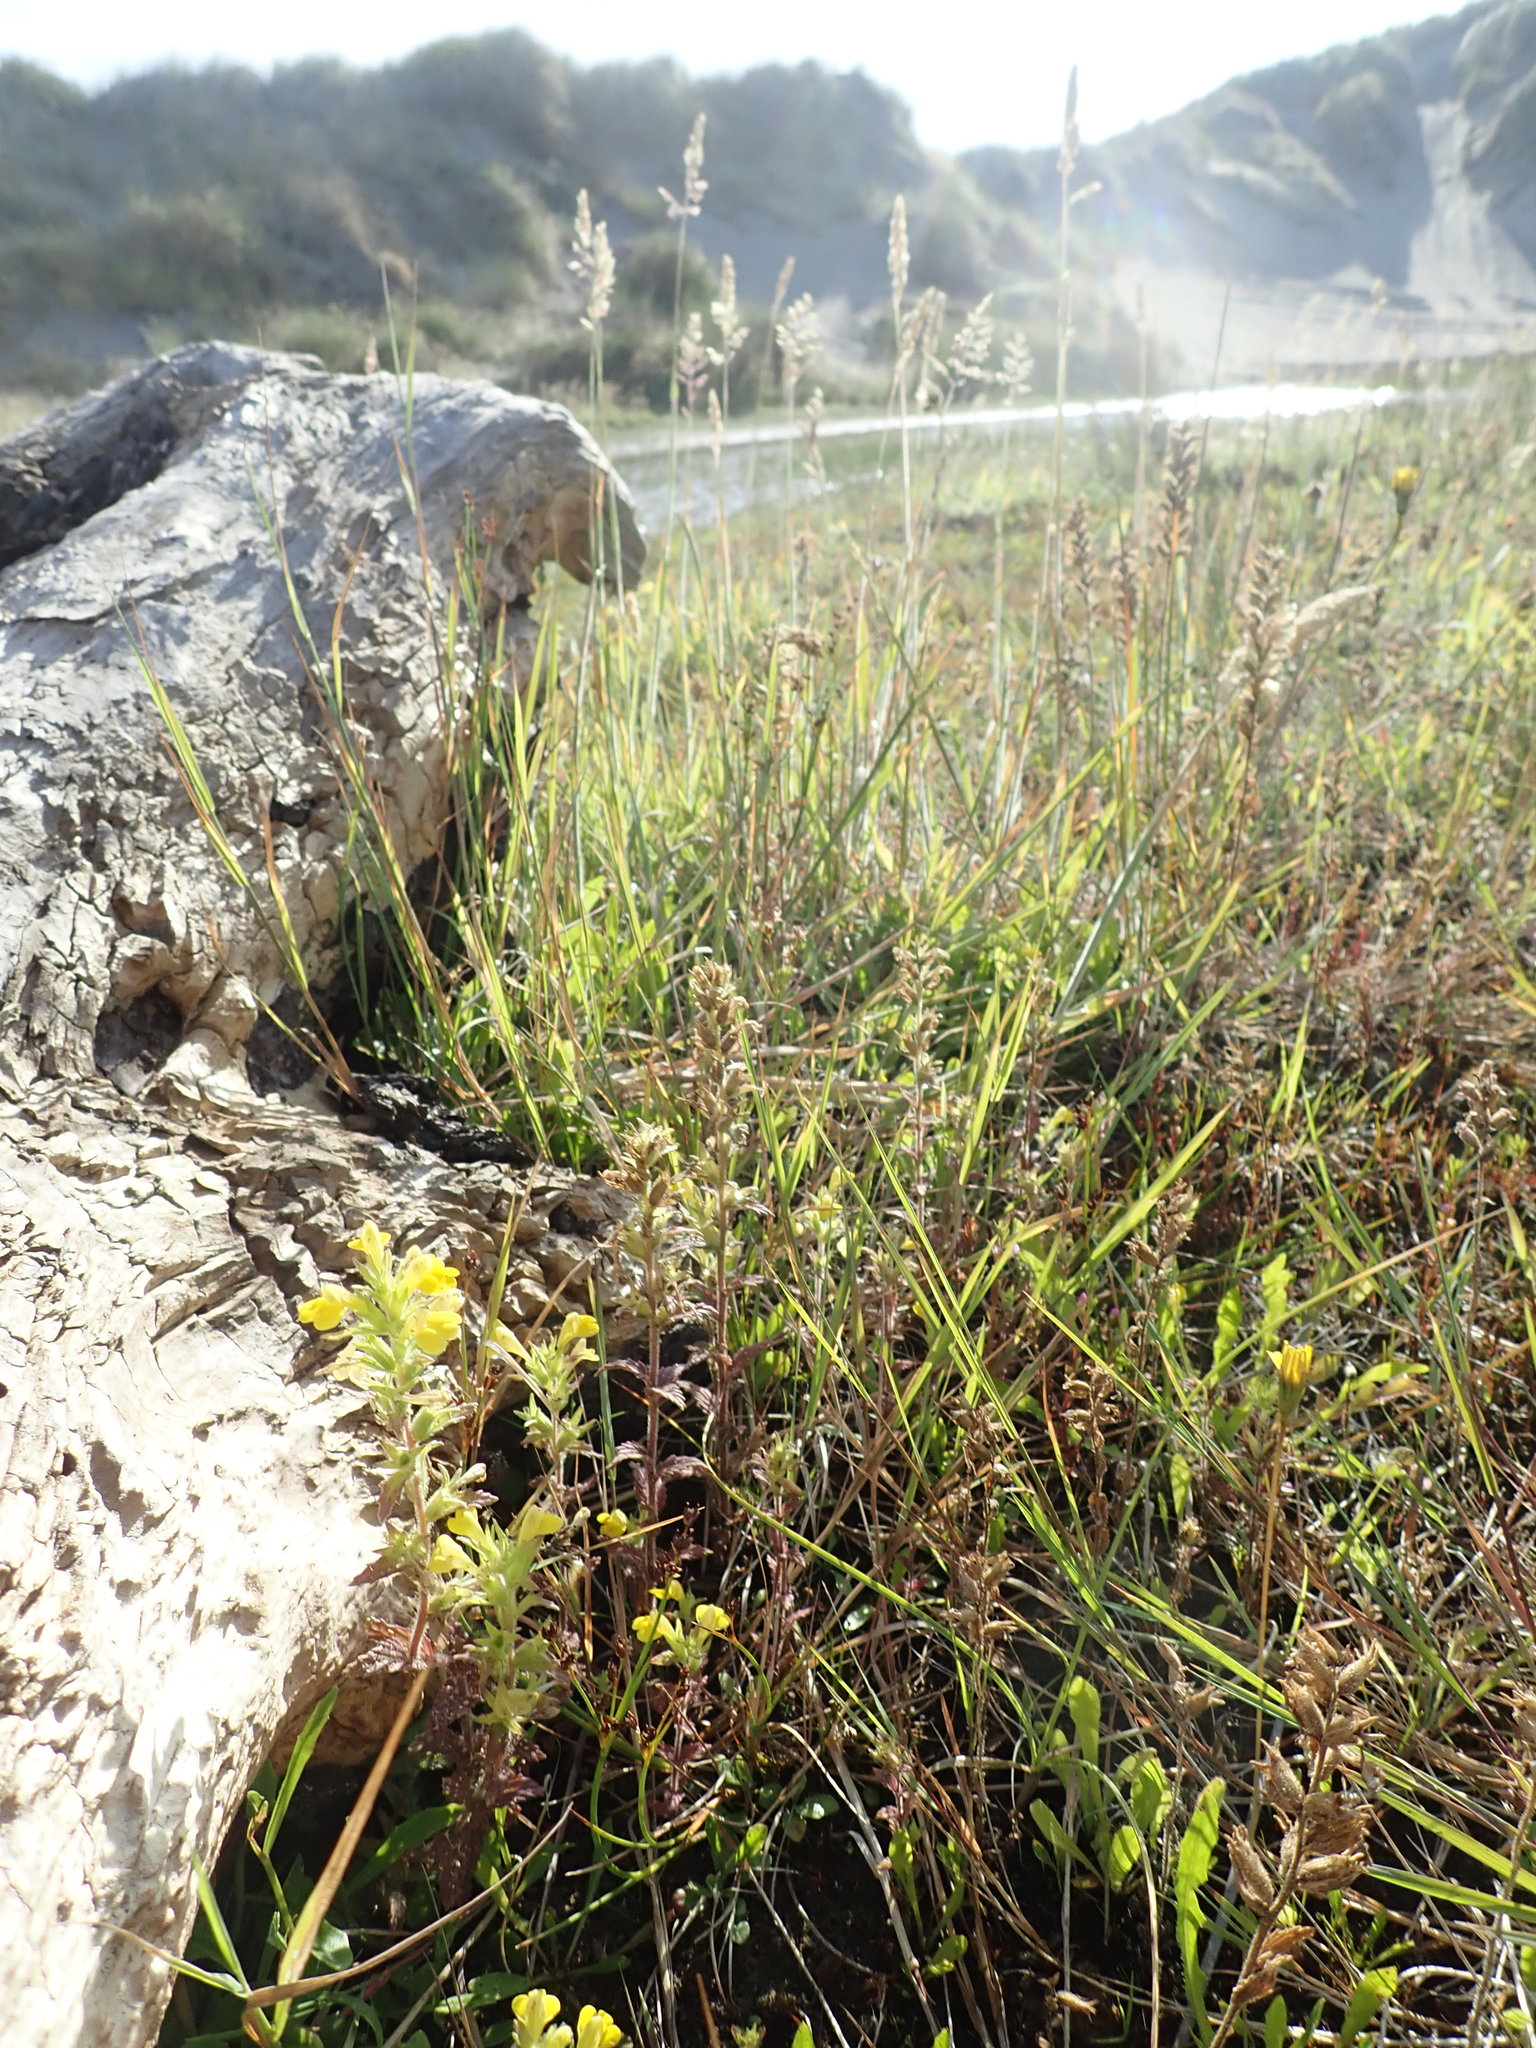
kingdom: Plantae
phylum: Tracheophyta
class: Magnoliopsida
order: Lamiales
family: Orobanchaceae
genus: Bellardia
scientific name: Bellardia viscosa
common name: Sticky parentucellia
